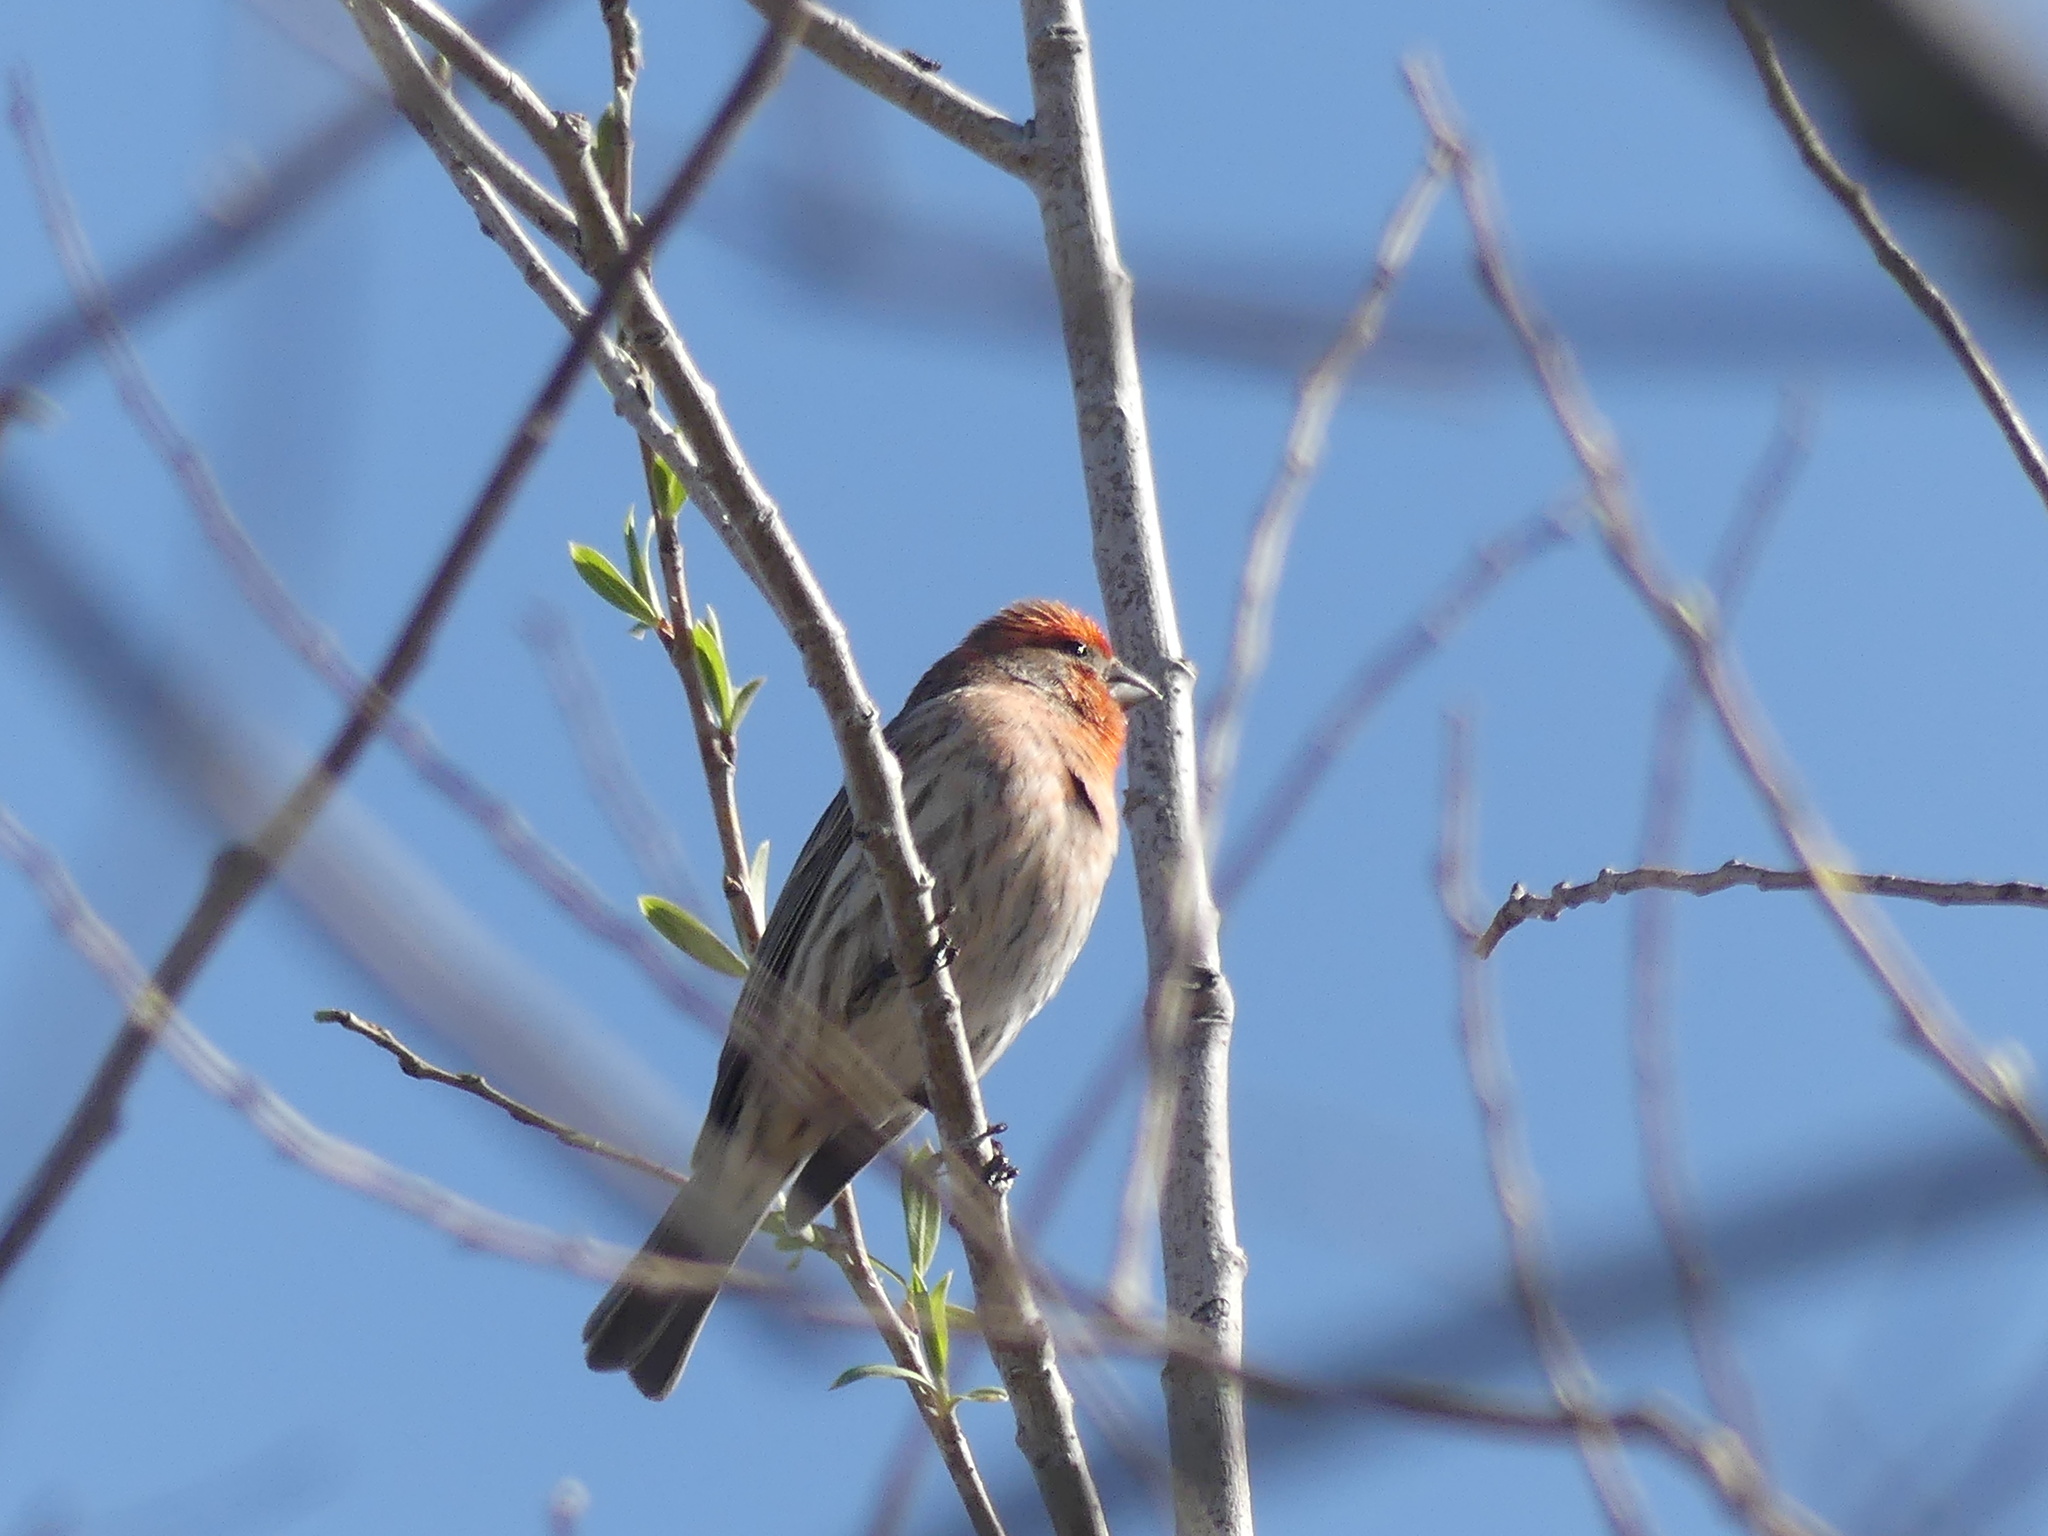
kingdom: Animalia
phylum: Chordata
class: Aves
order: Passeriformes
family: Fringillidae
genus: Haemorhous
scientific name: Haemorhous mexicanus
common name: House finch
